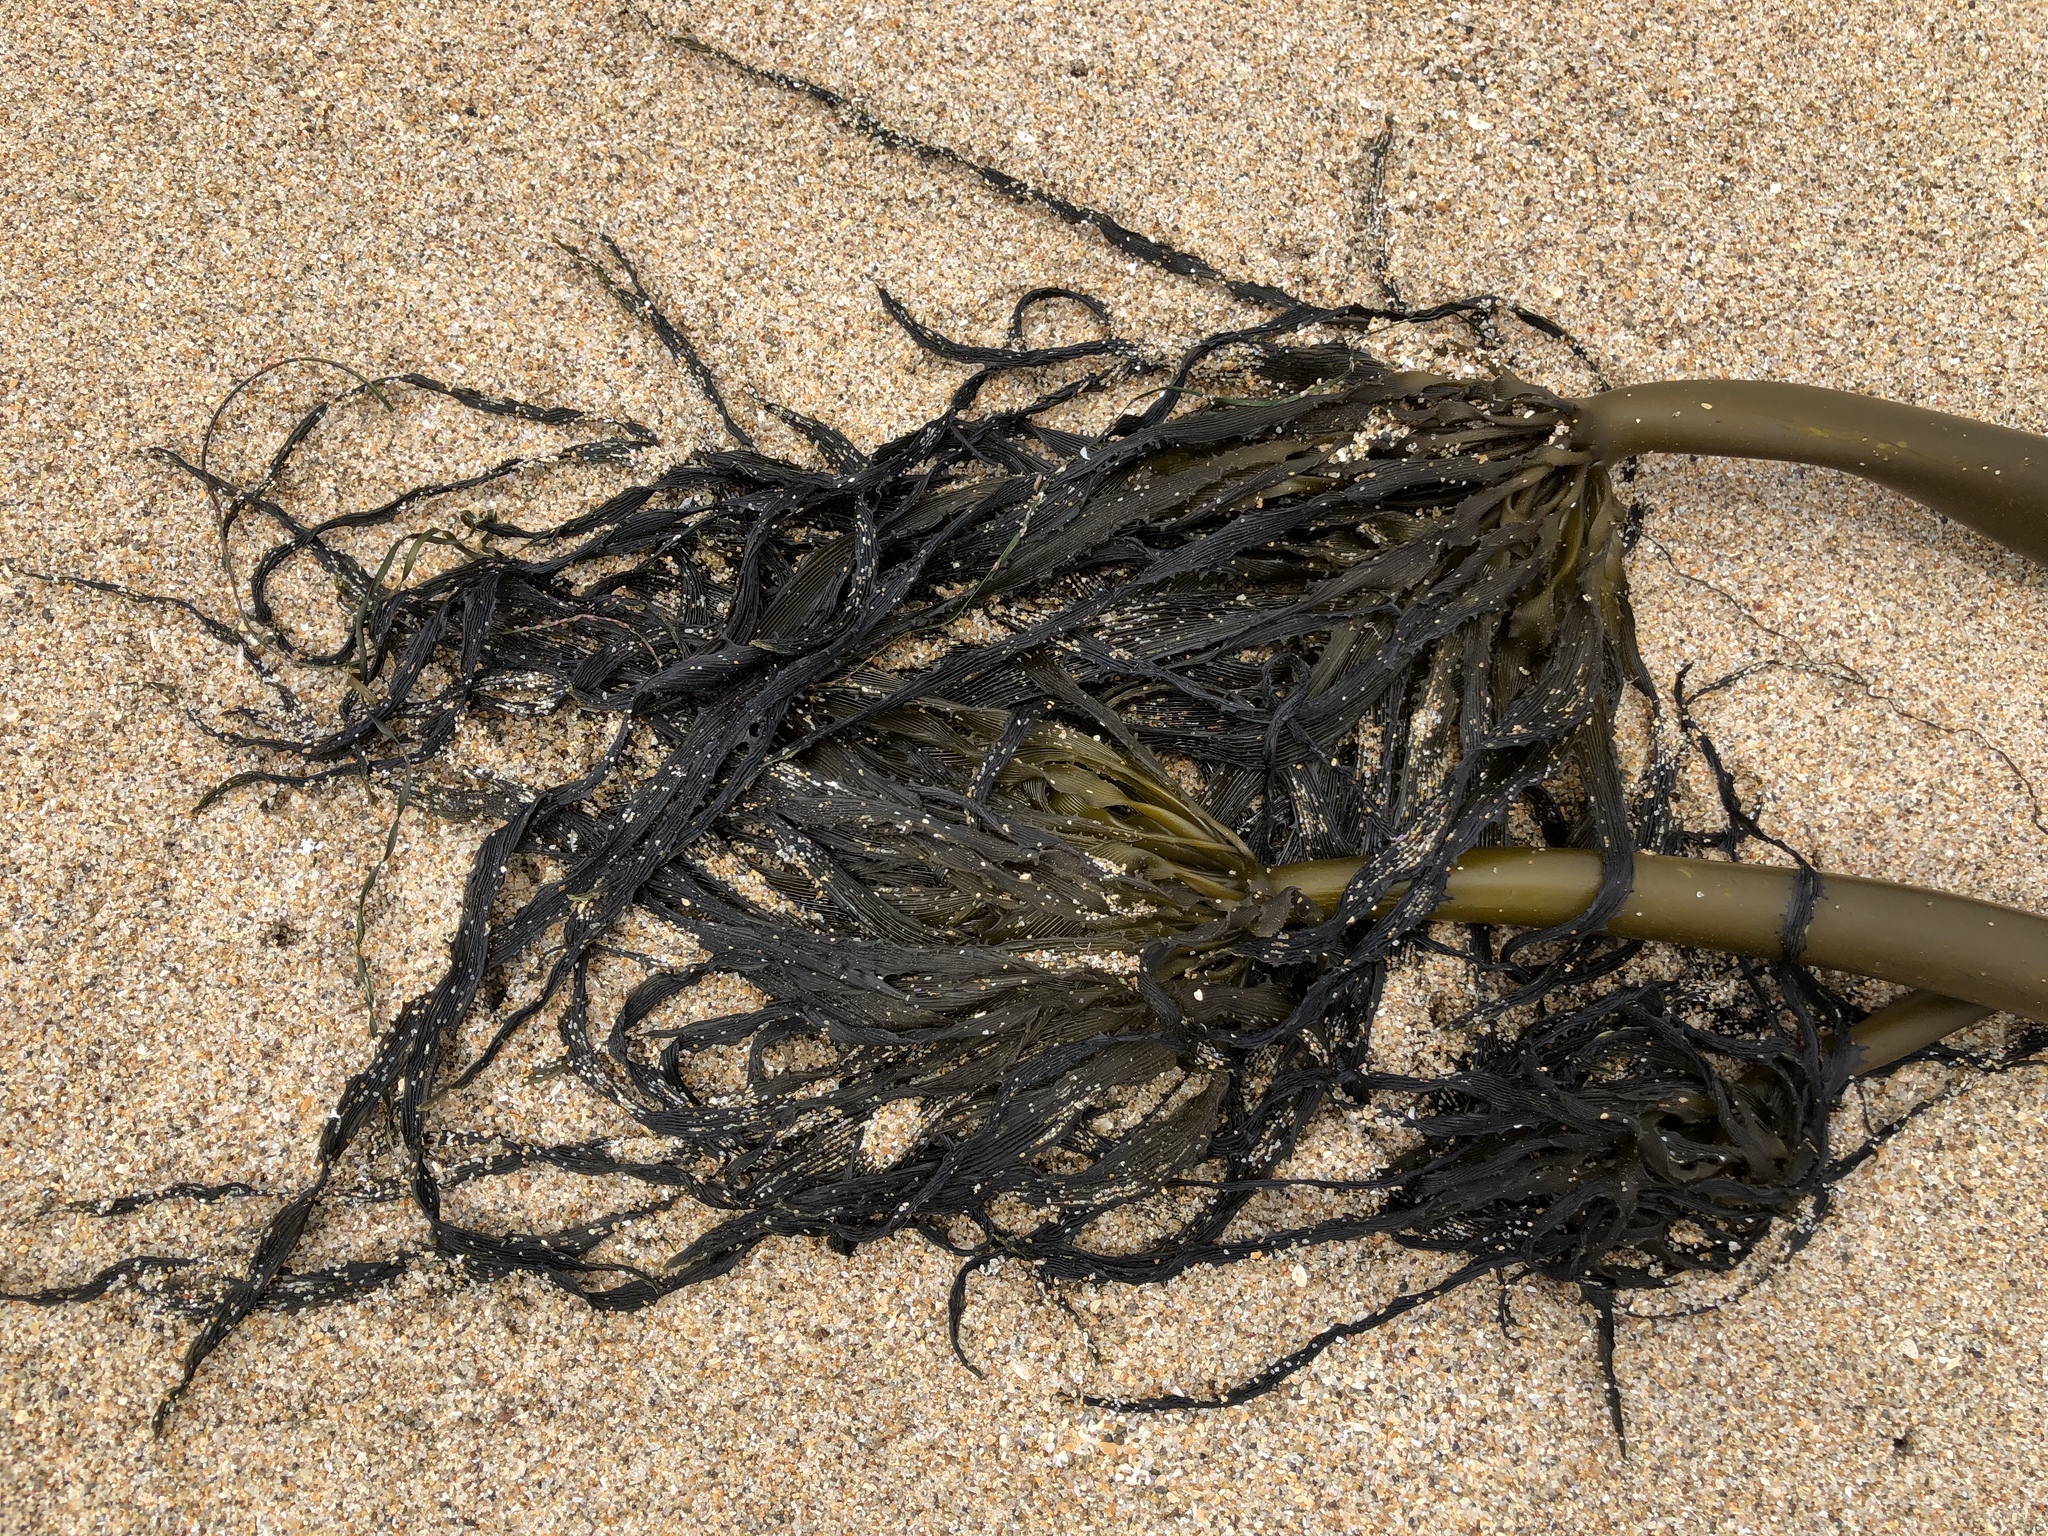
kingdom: Chromista
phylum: Ochrophyta
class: Phaeophyceae
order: Laminariales
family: Laminariaceae
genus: Postelsia
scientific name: Postelsia palmiformis
